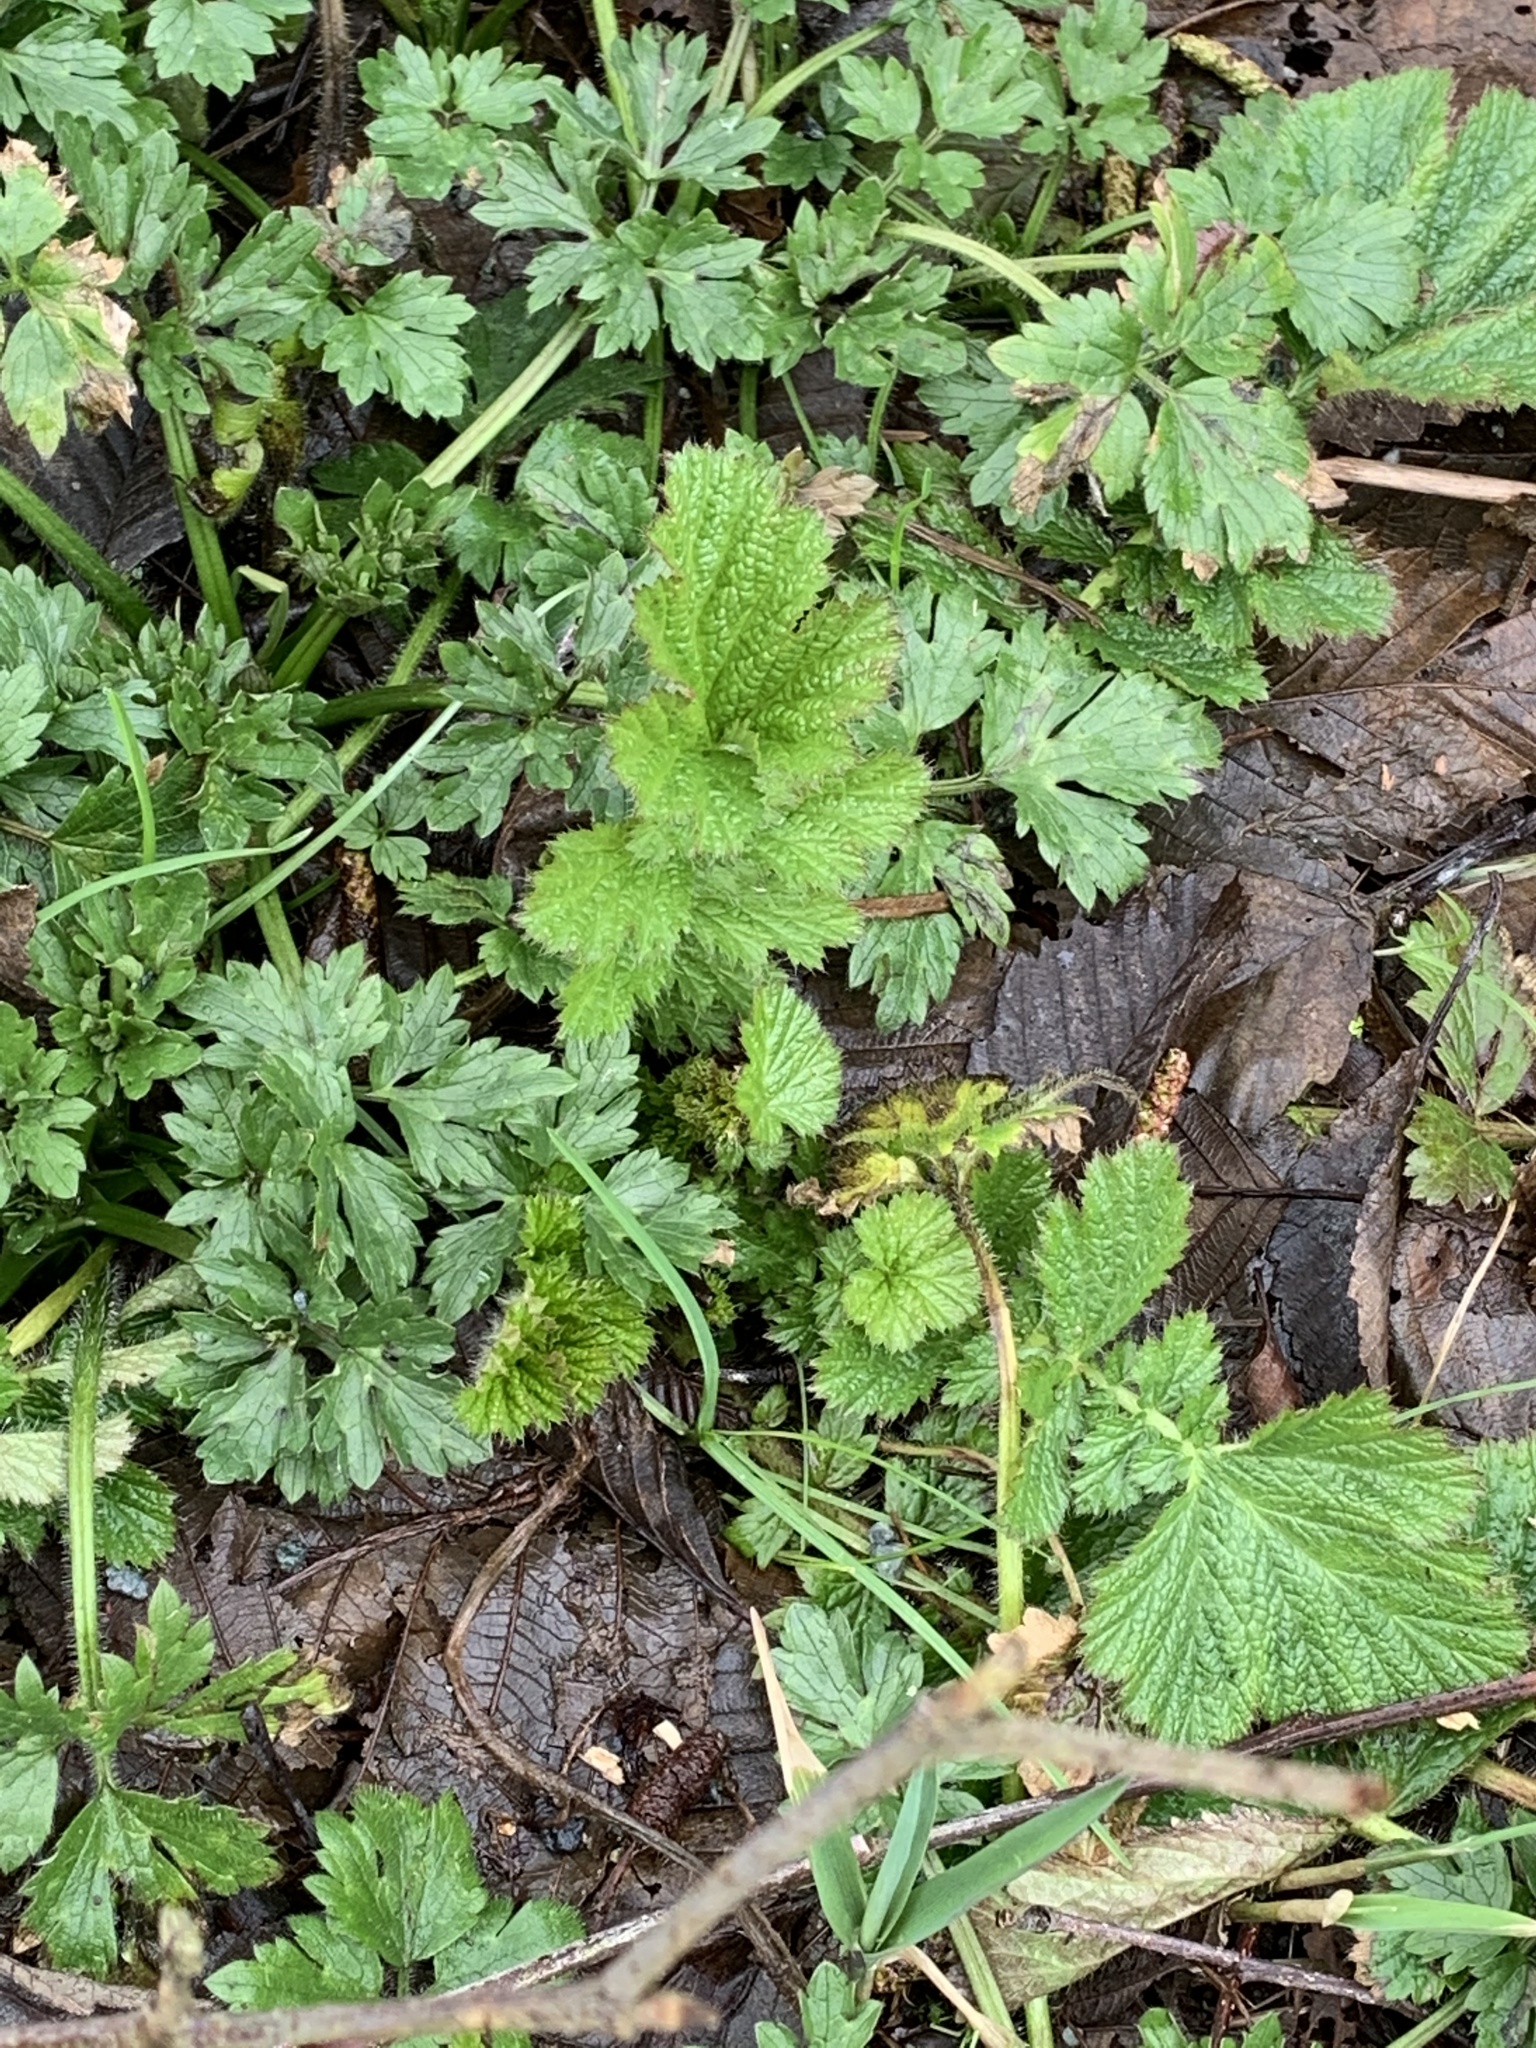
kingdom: Plantae
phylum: Tracheophyta
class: Magnoliopsida
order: Rosales
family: Rosaceae
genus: Geum
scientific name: Geum macrophyllum
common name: Large-leaved avens
